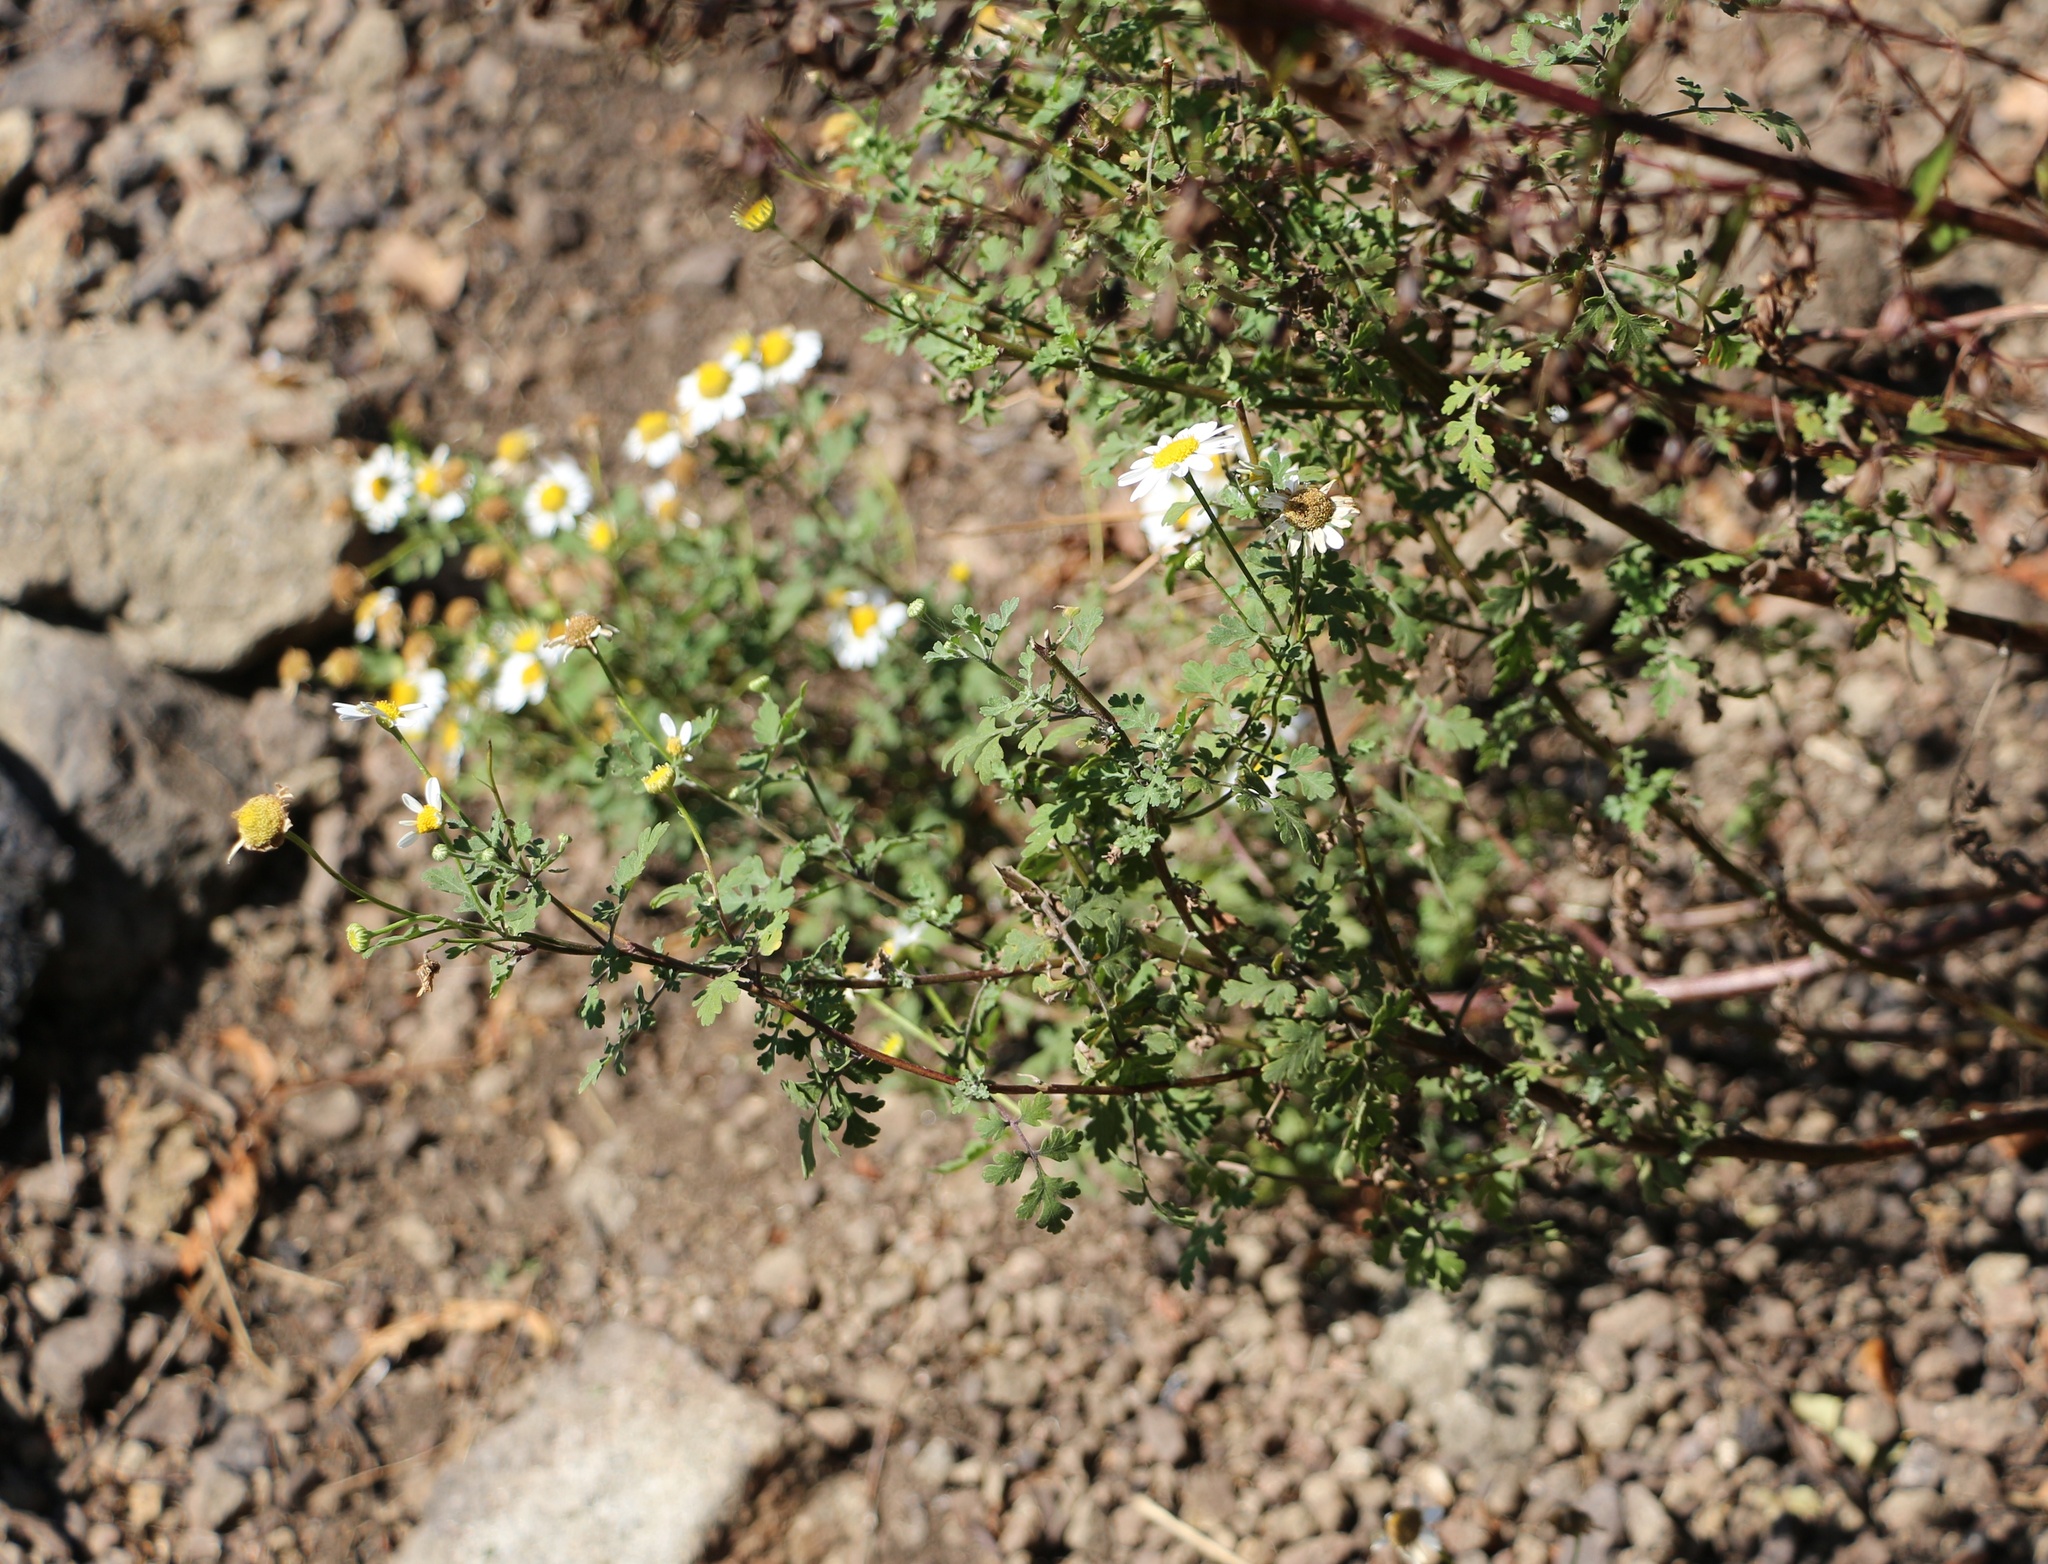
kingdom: Plantae
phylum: Tracheophyta
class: Magnoliopsida
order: Asterales
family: Asteraceae
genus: Tanacetum
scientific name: Tanacetum partheniifolium
